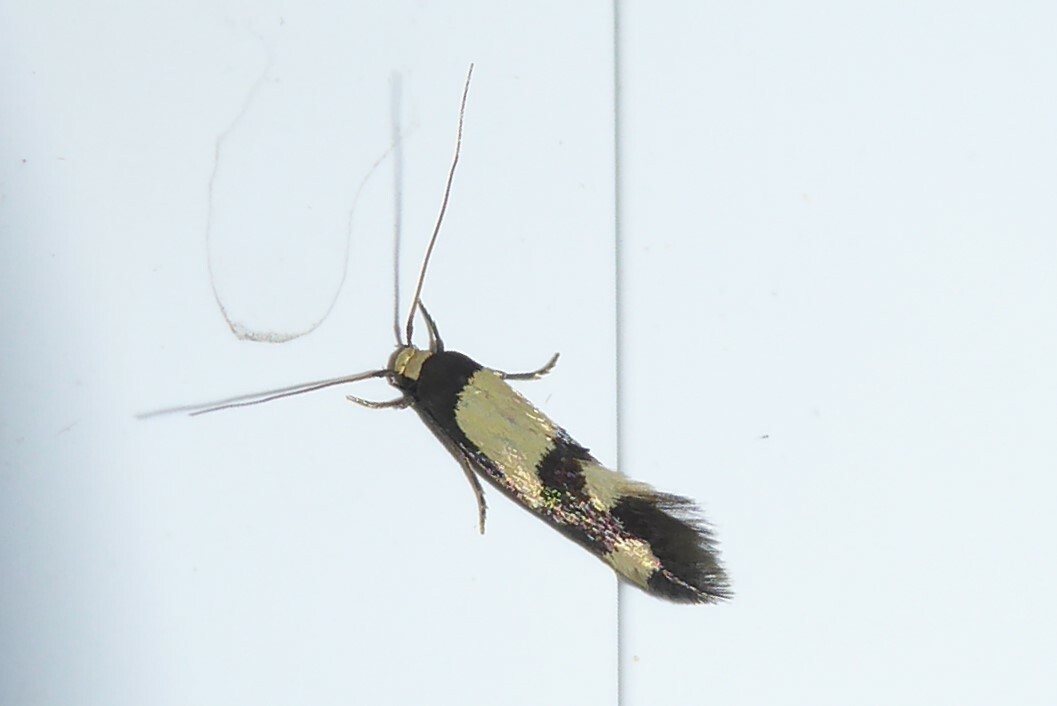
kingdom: Animalia
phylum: Arthropoda
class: Insecta
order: Lepidoptera
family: Tineidae
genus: Opogona
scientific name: Opogona comptella
